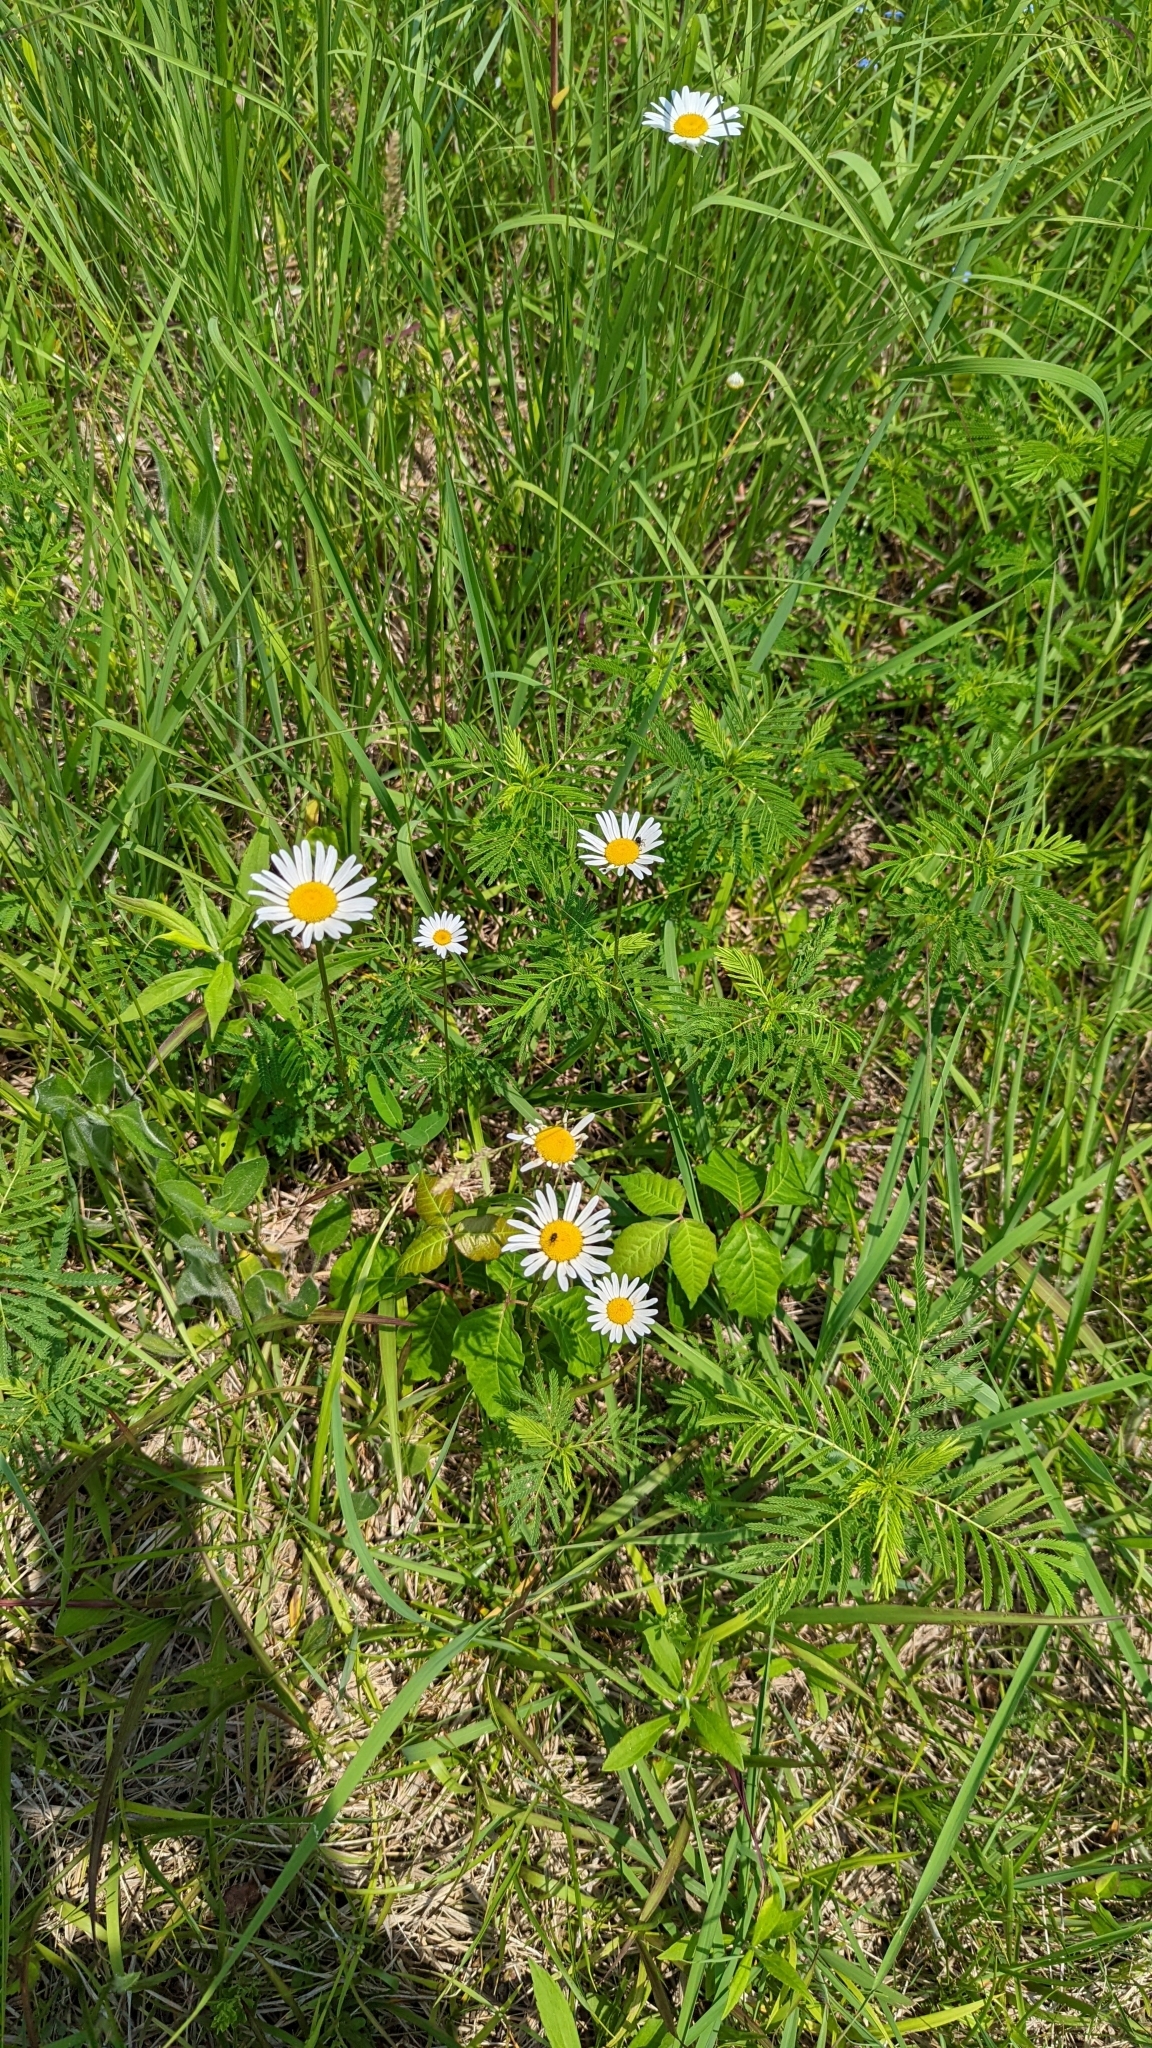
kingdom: Plantae
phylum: Tracheophyta
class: Magnoliopsida
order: Asterales
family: Asteraceae
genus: Leucanthemum
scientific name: Leucanthemum vulgare
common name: Oxeye daisy
